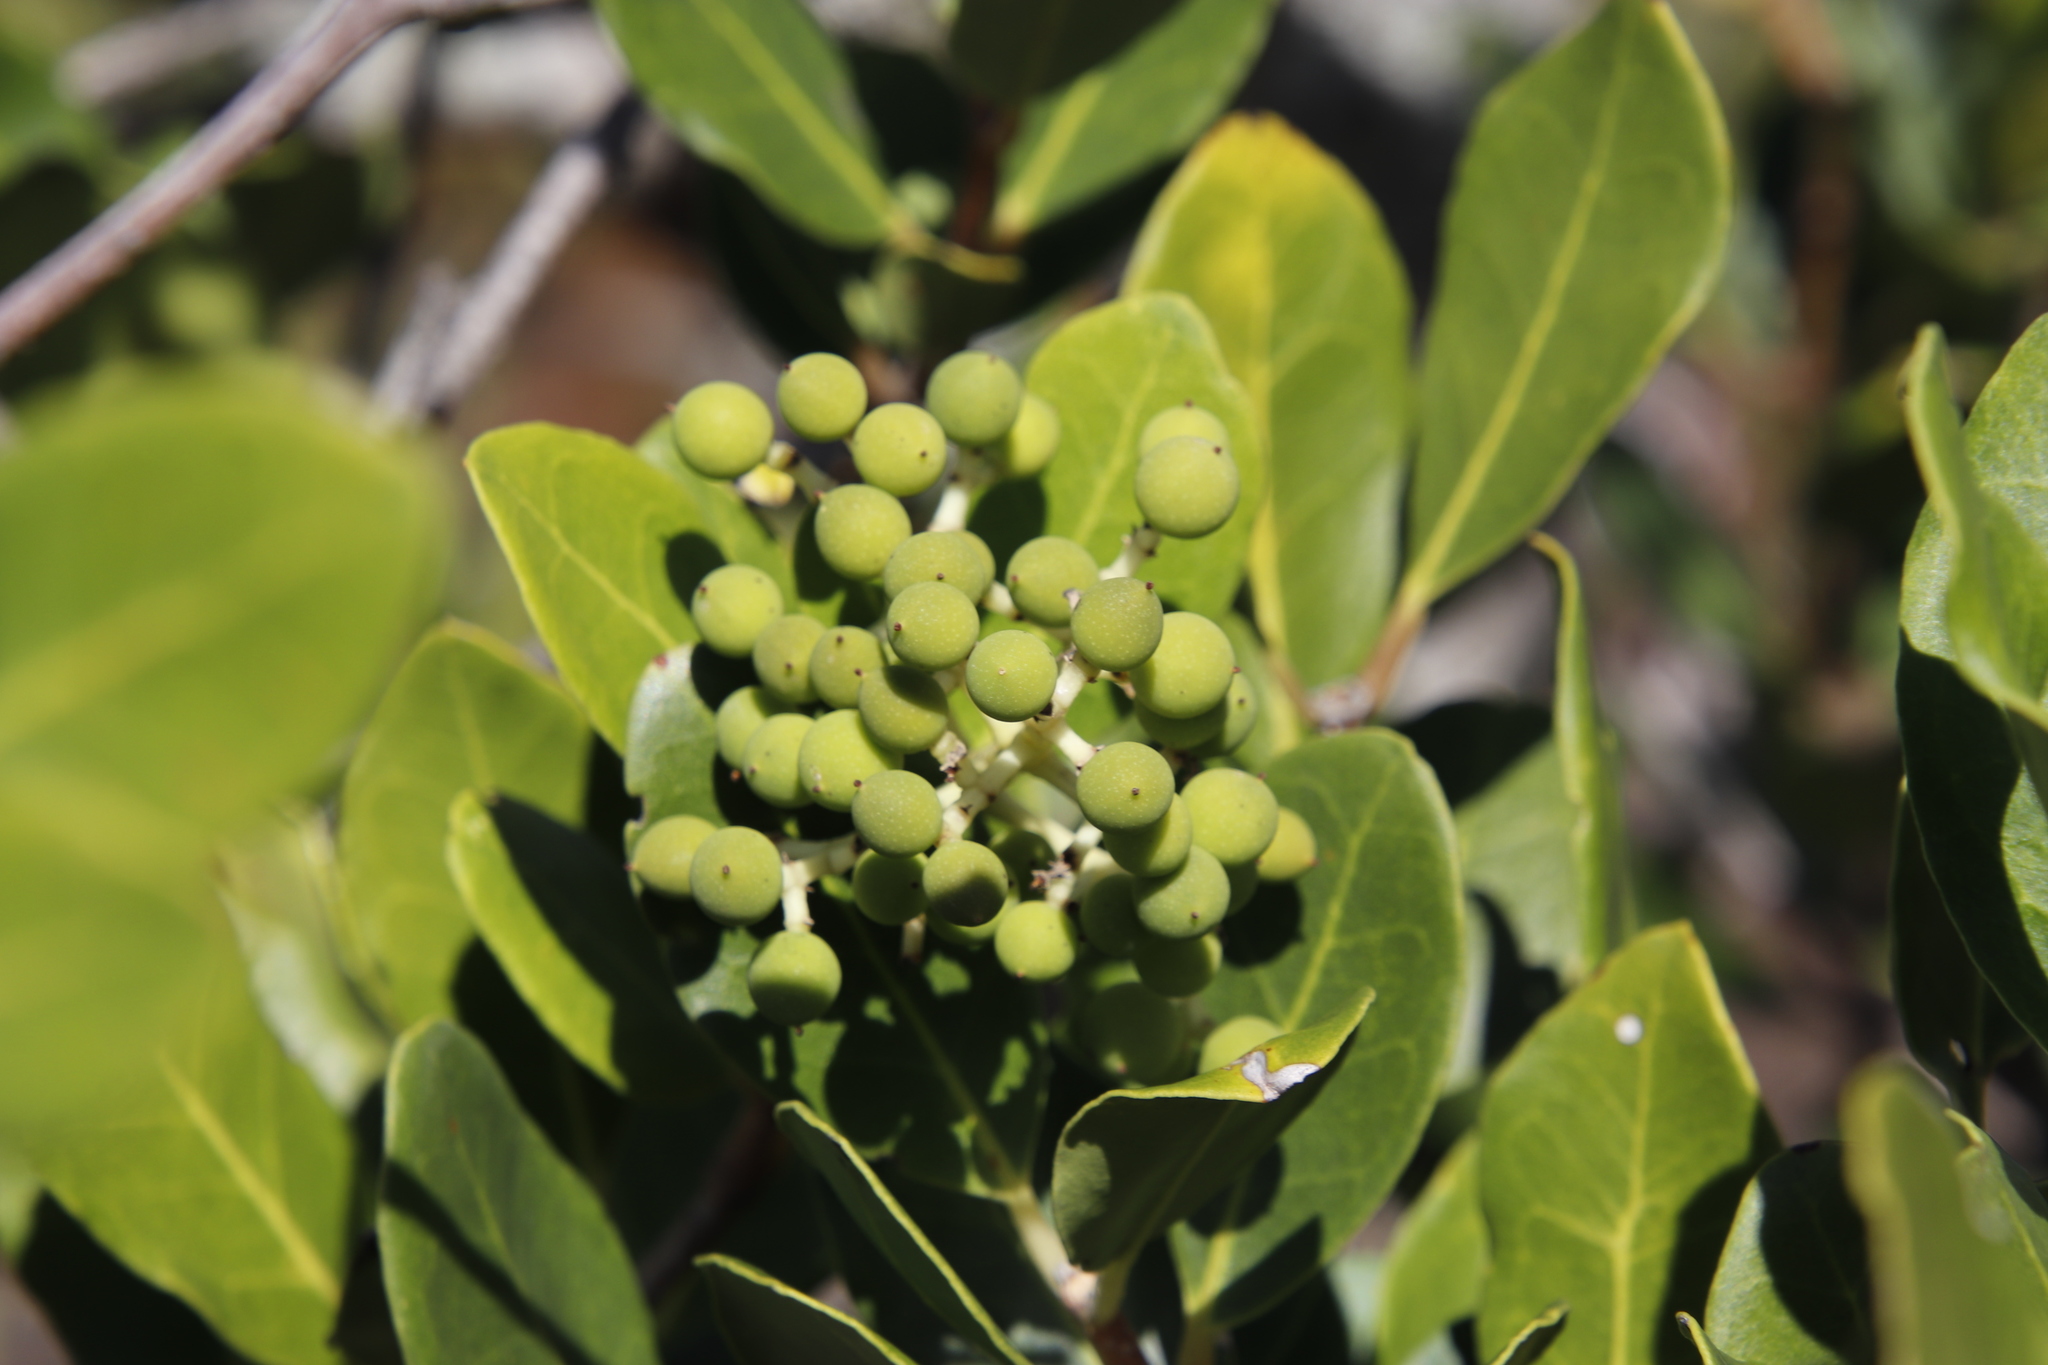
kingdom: Plantae
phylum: Tracheophyta
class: Magnoliopsida
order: Lamiales
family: Oleaceae
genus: Olea
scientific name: Olea capensis
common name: Black ironwood
